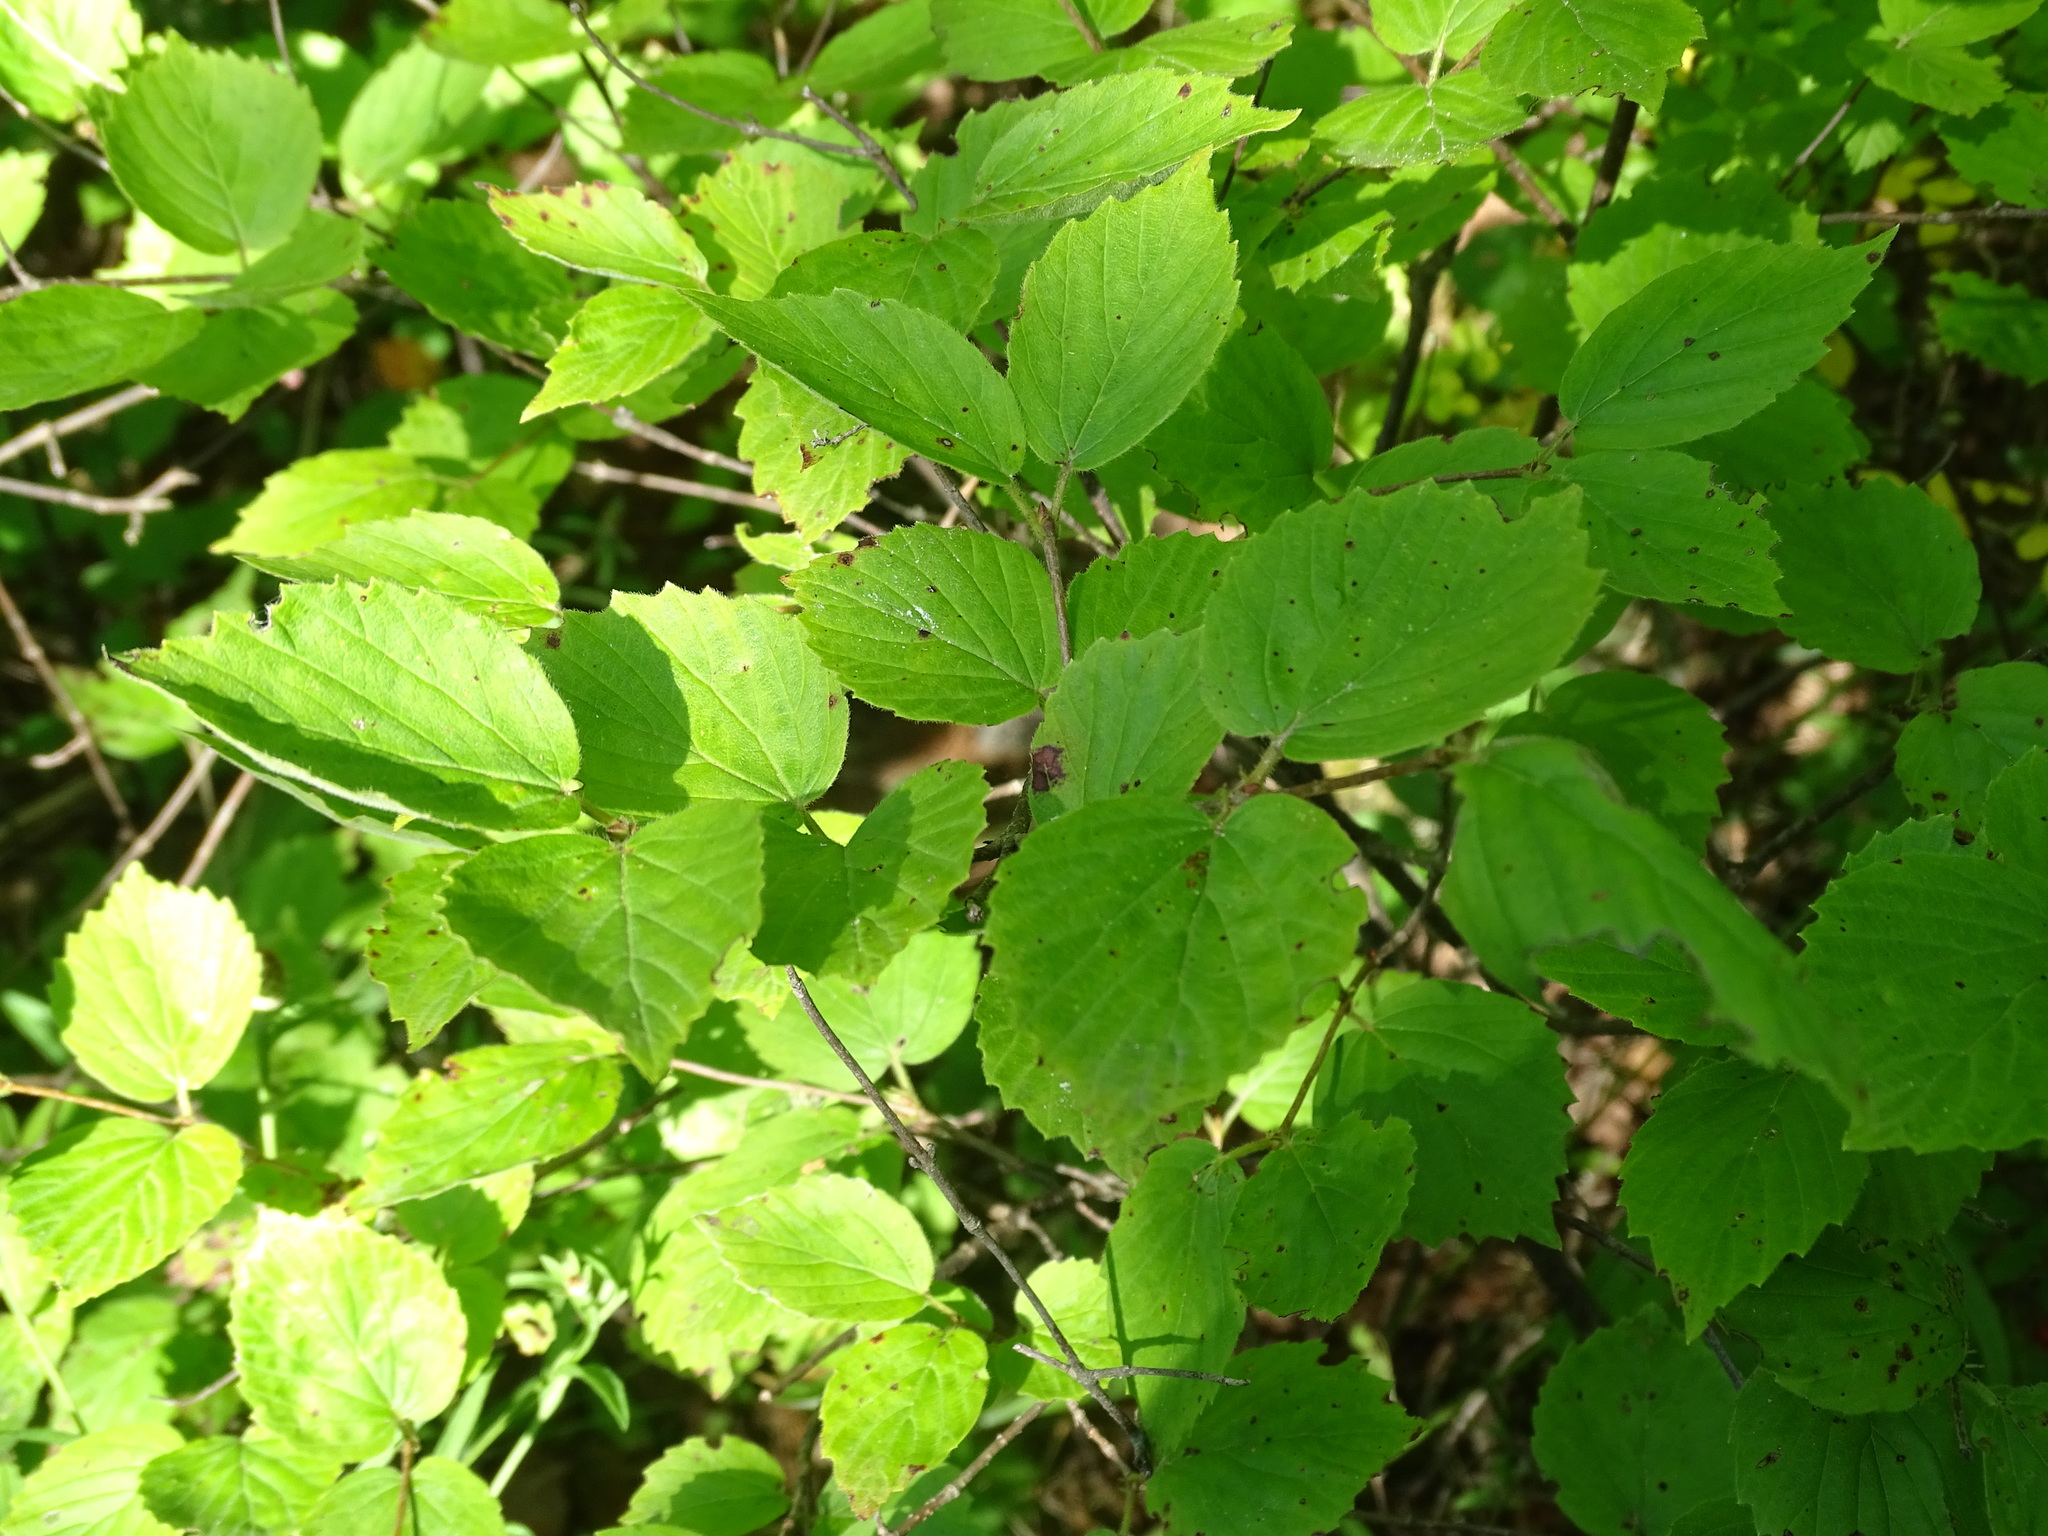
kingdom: Plantae
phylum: Tracheophyta
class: Magnoliopsida
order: Dipsacales
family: Viburnaceae
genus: Viburnum
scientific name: Viburnum rafinesqueanum
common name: Downy arrow-wood
